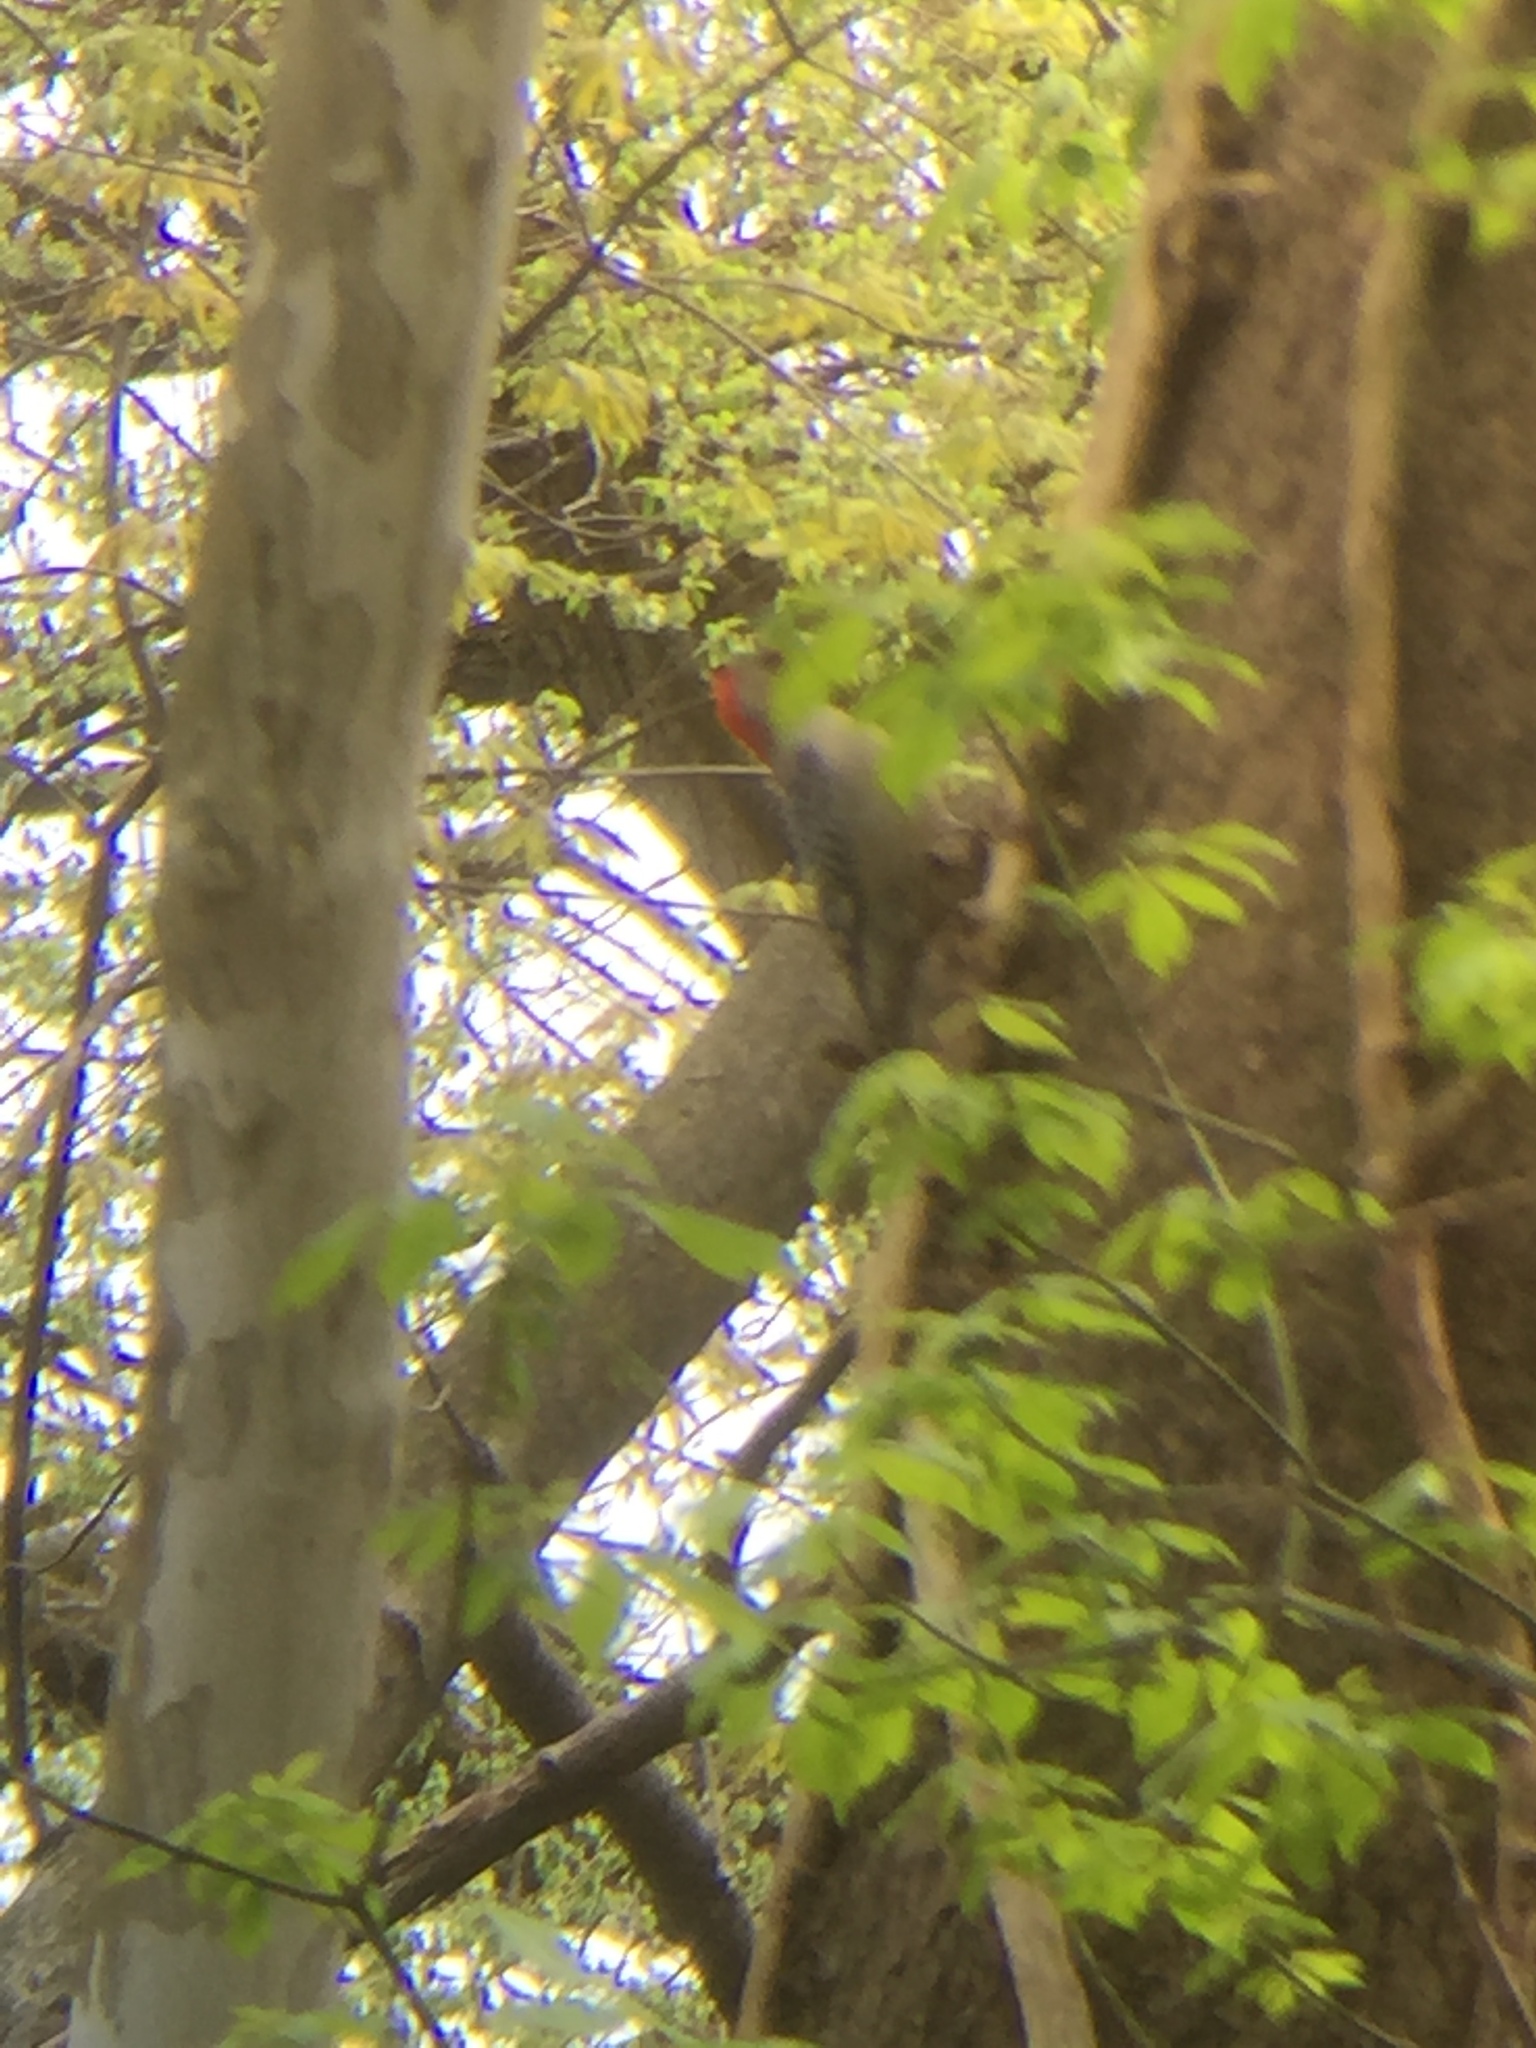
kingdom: Animalia
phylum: Chordata
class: Aves
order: Piciformes
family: Picidae
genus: Melanerpes
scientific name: Melanerpes carolinus
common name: Red-bellied woodpecker
